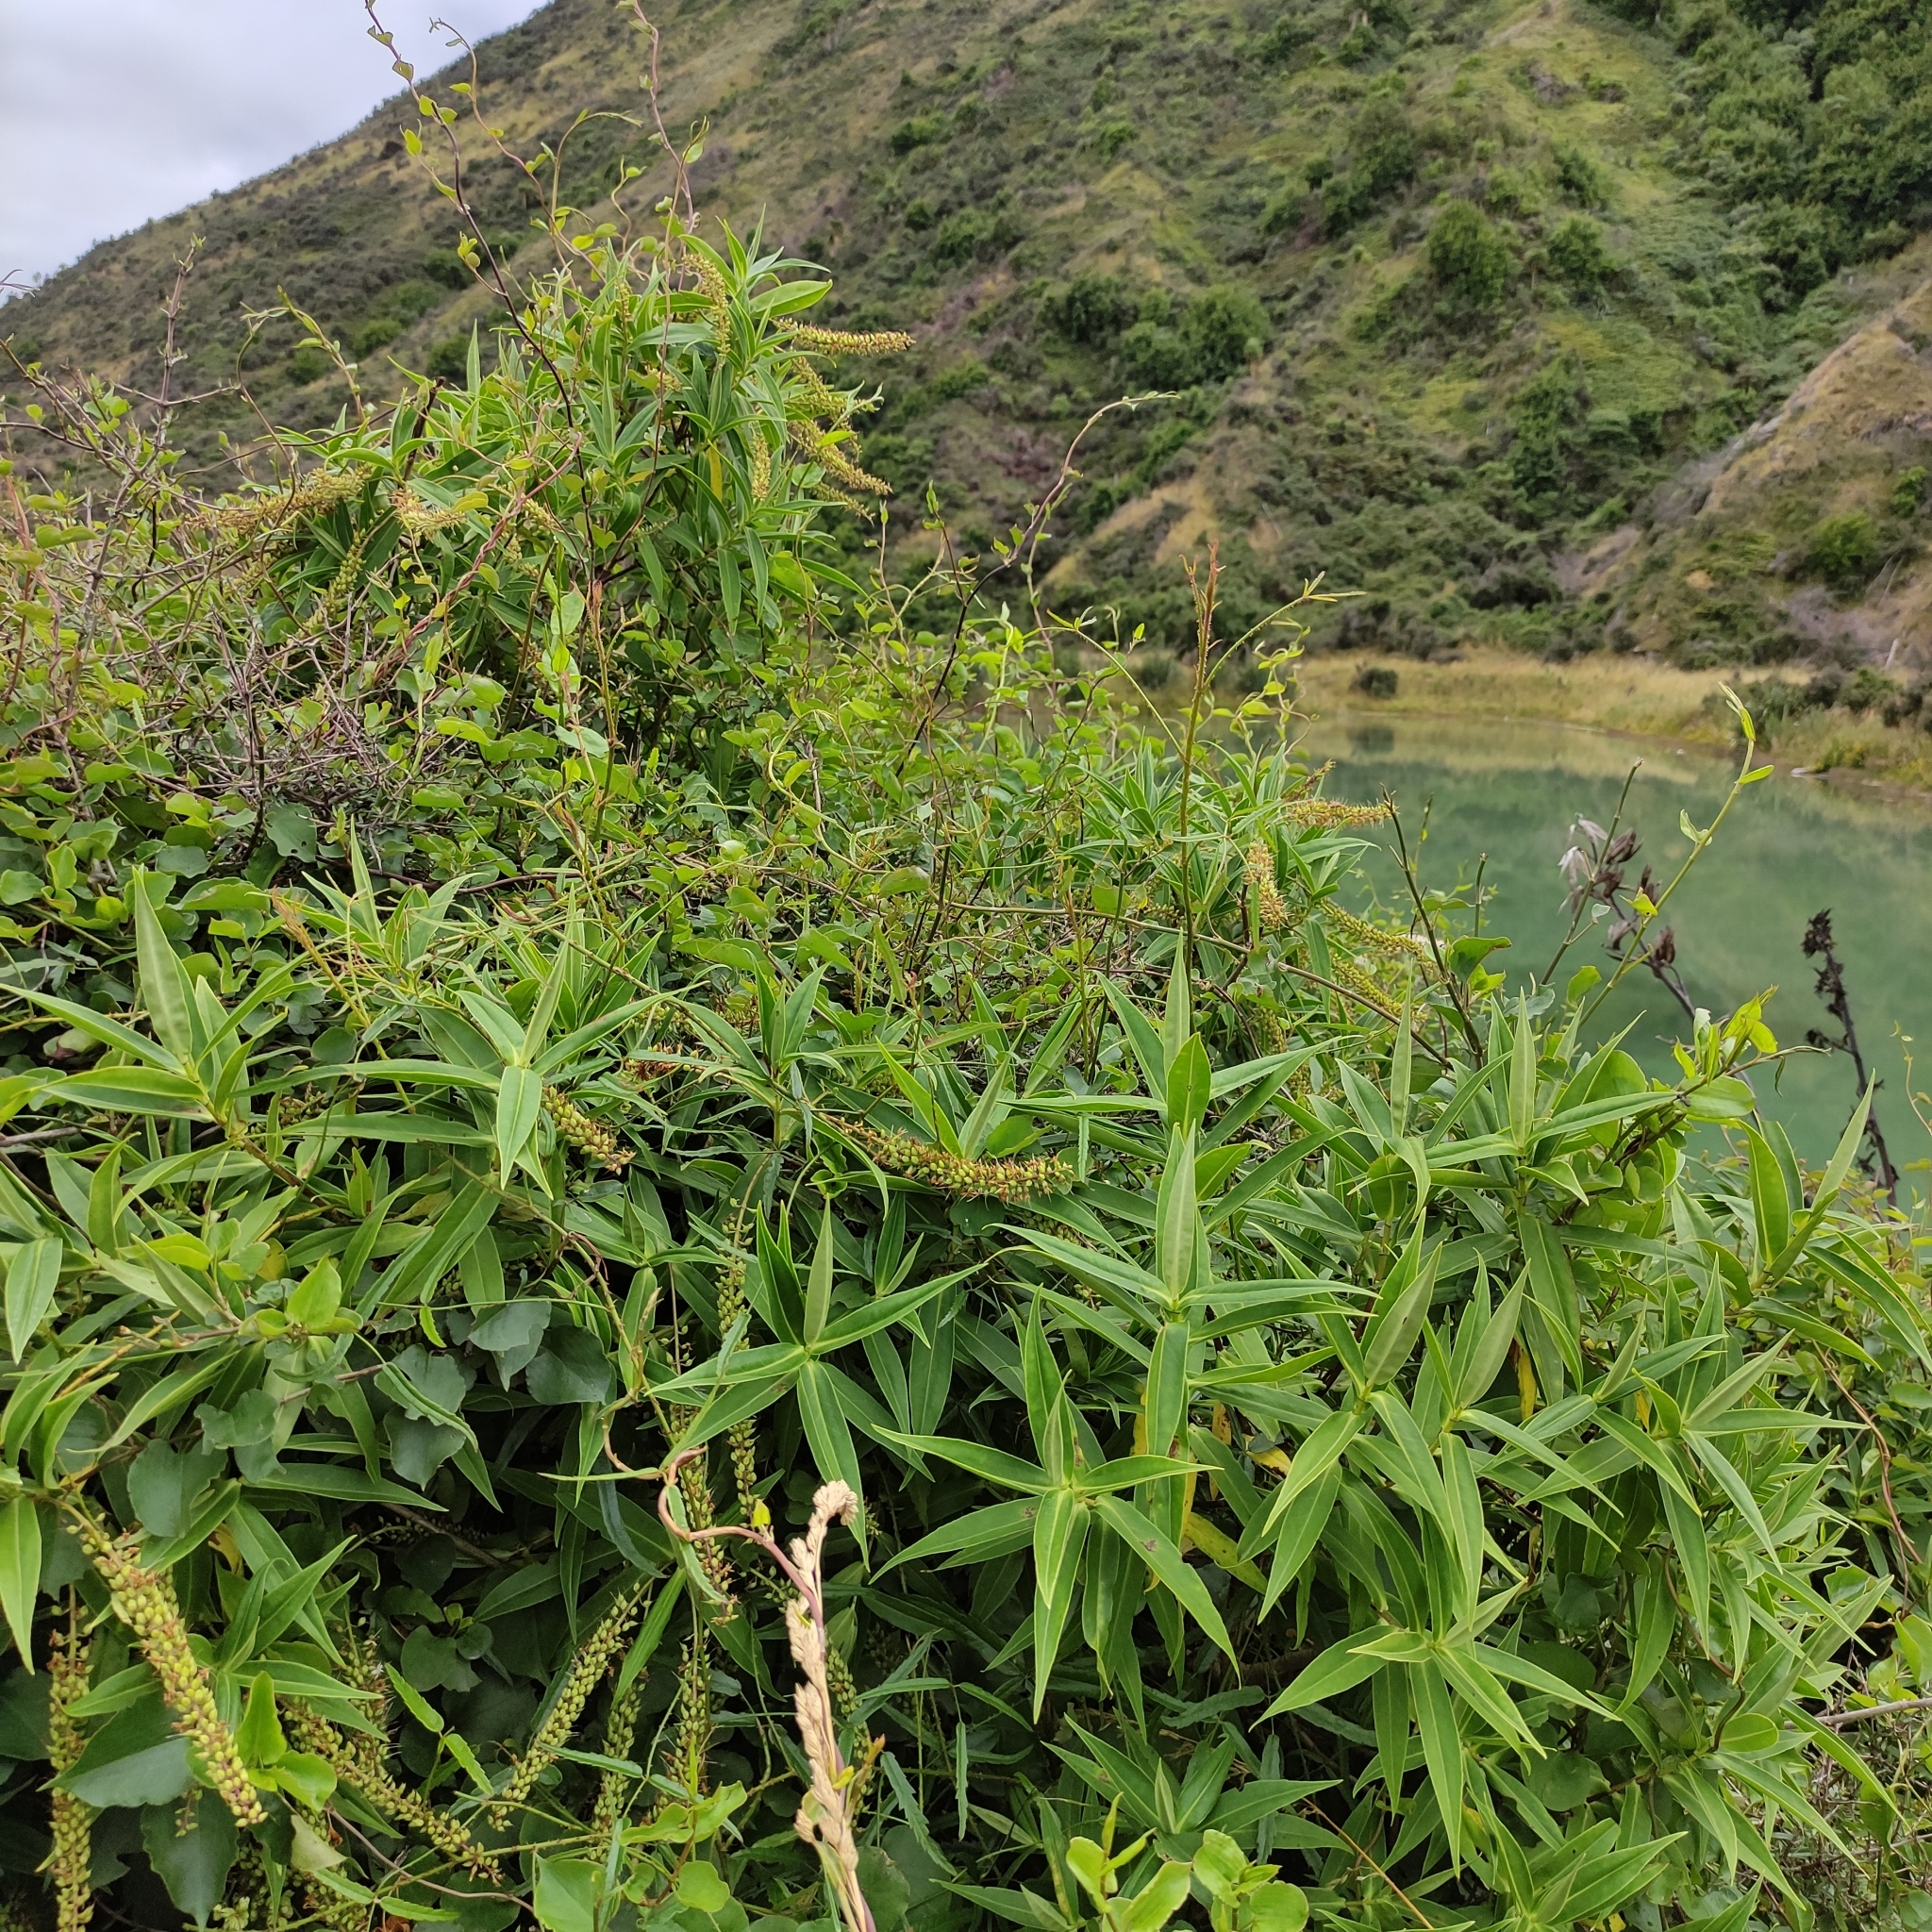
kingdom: Plantae
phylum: Tracheophyta
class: Magnoliopsida
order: Lamiales
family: Plantaginaceae
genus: Veronica
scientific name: Veronica salicifolia
